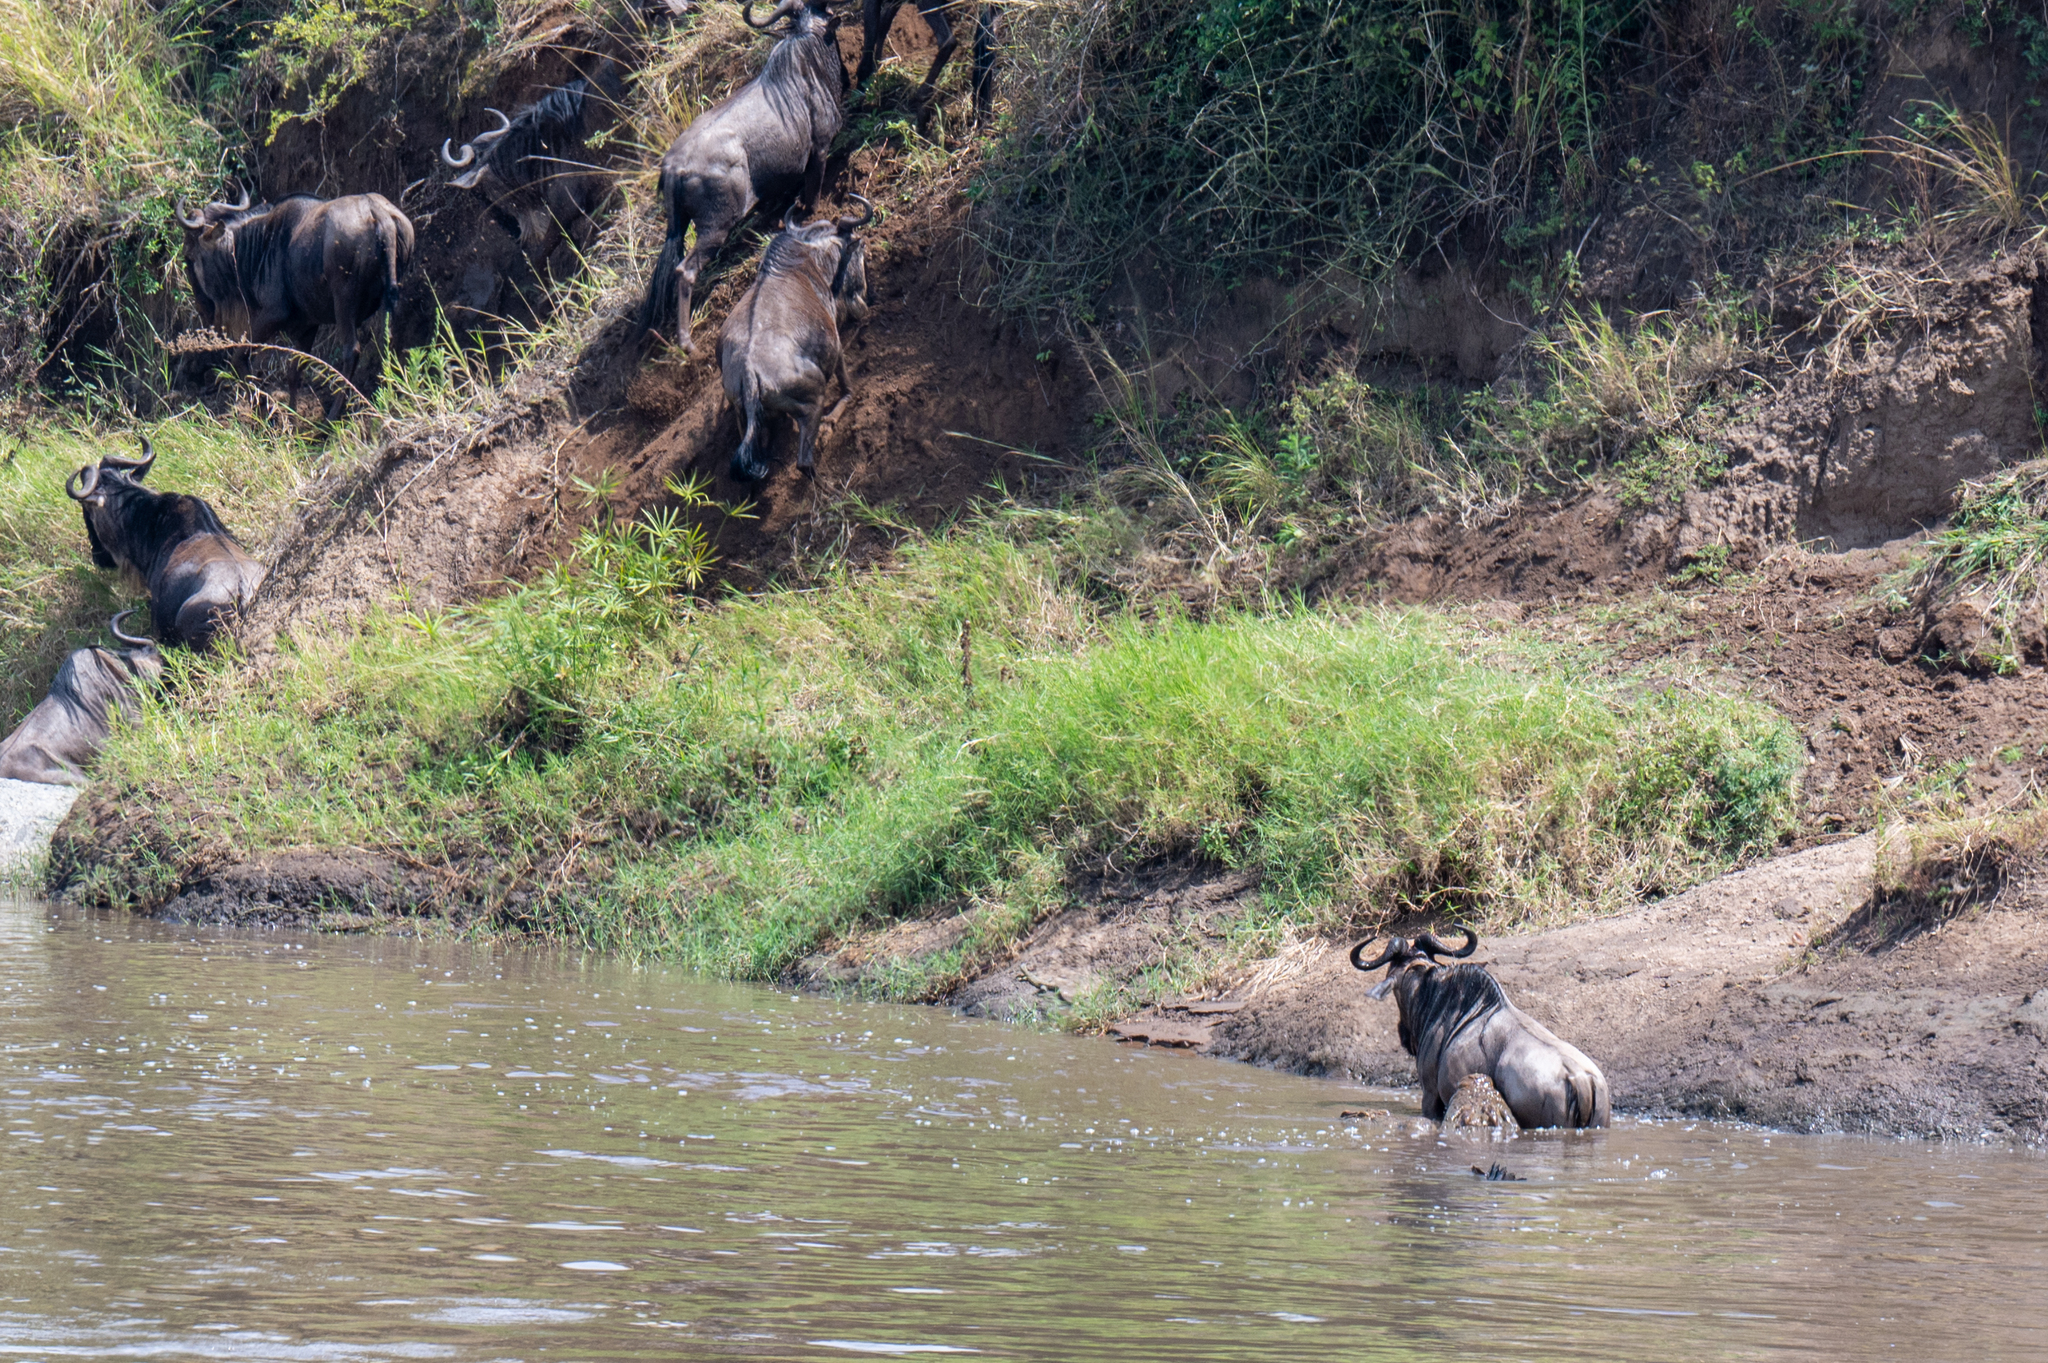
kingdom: Animalia
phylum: Chordata
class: Mammalia
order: Artiodactyla
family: Bovidae
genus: Connochaetes
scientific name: Connochaetes taurinus
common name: Blue wildebeest
